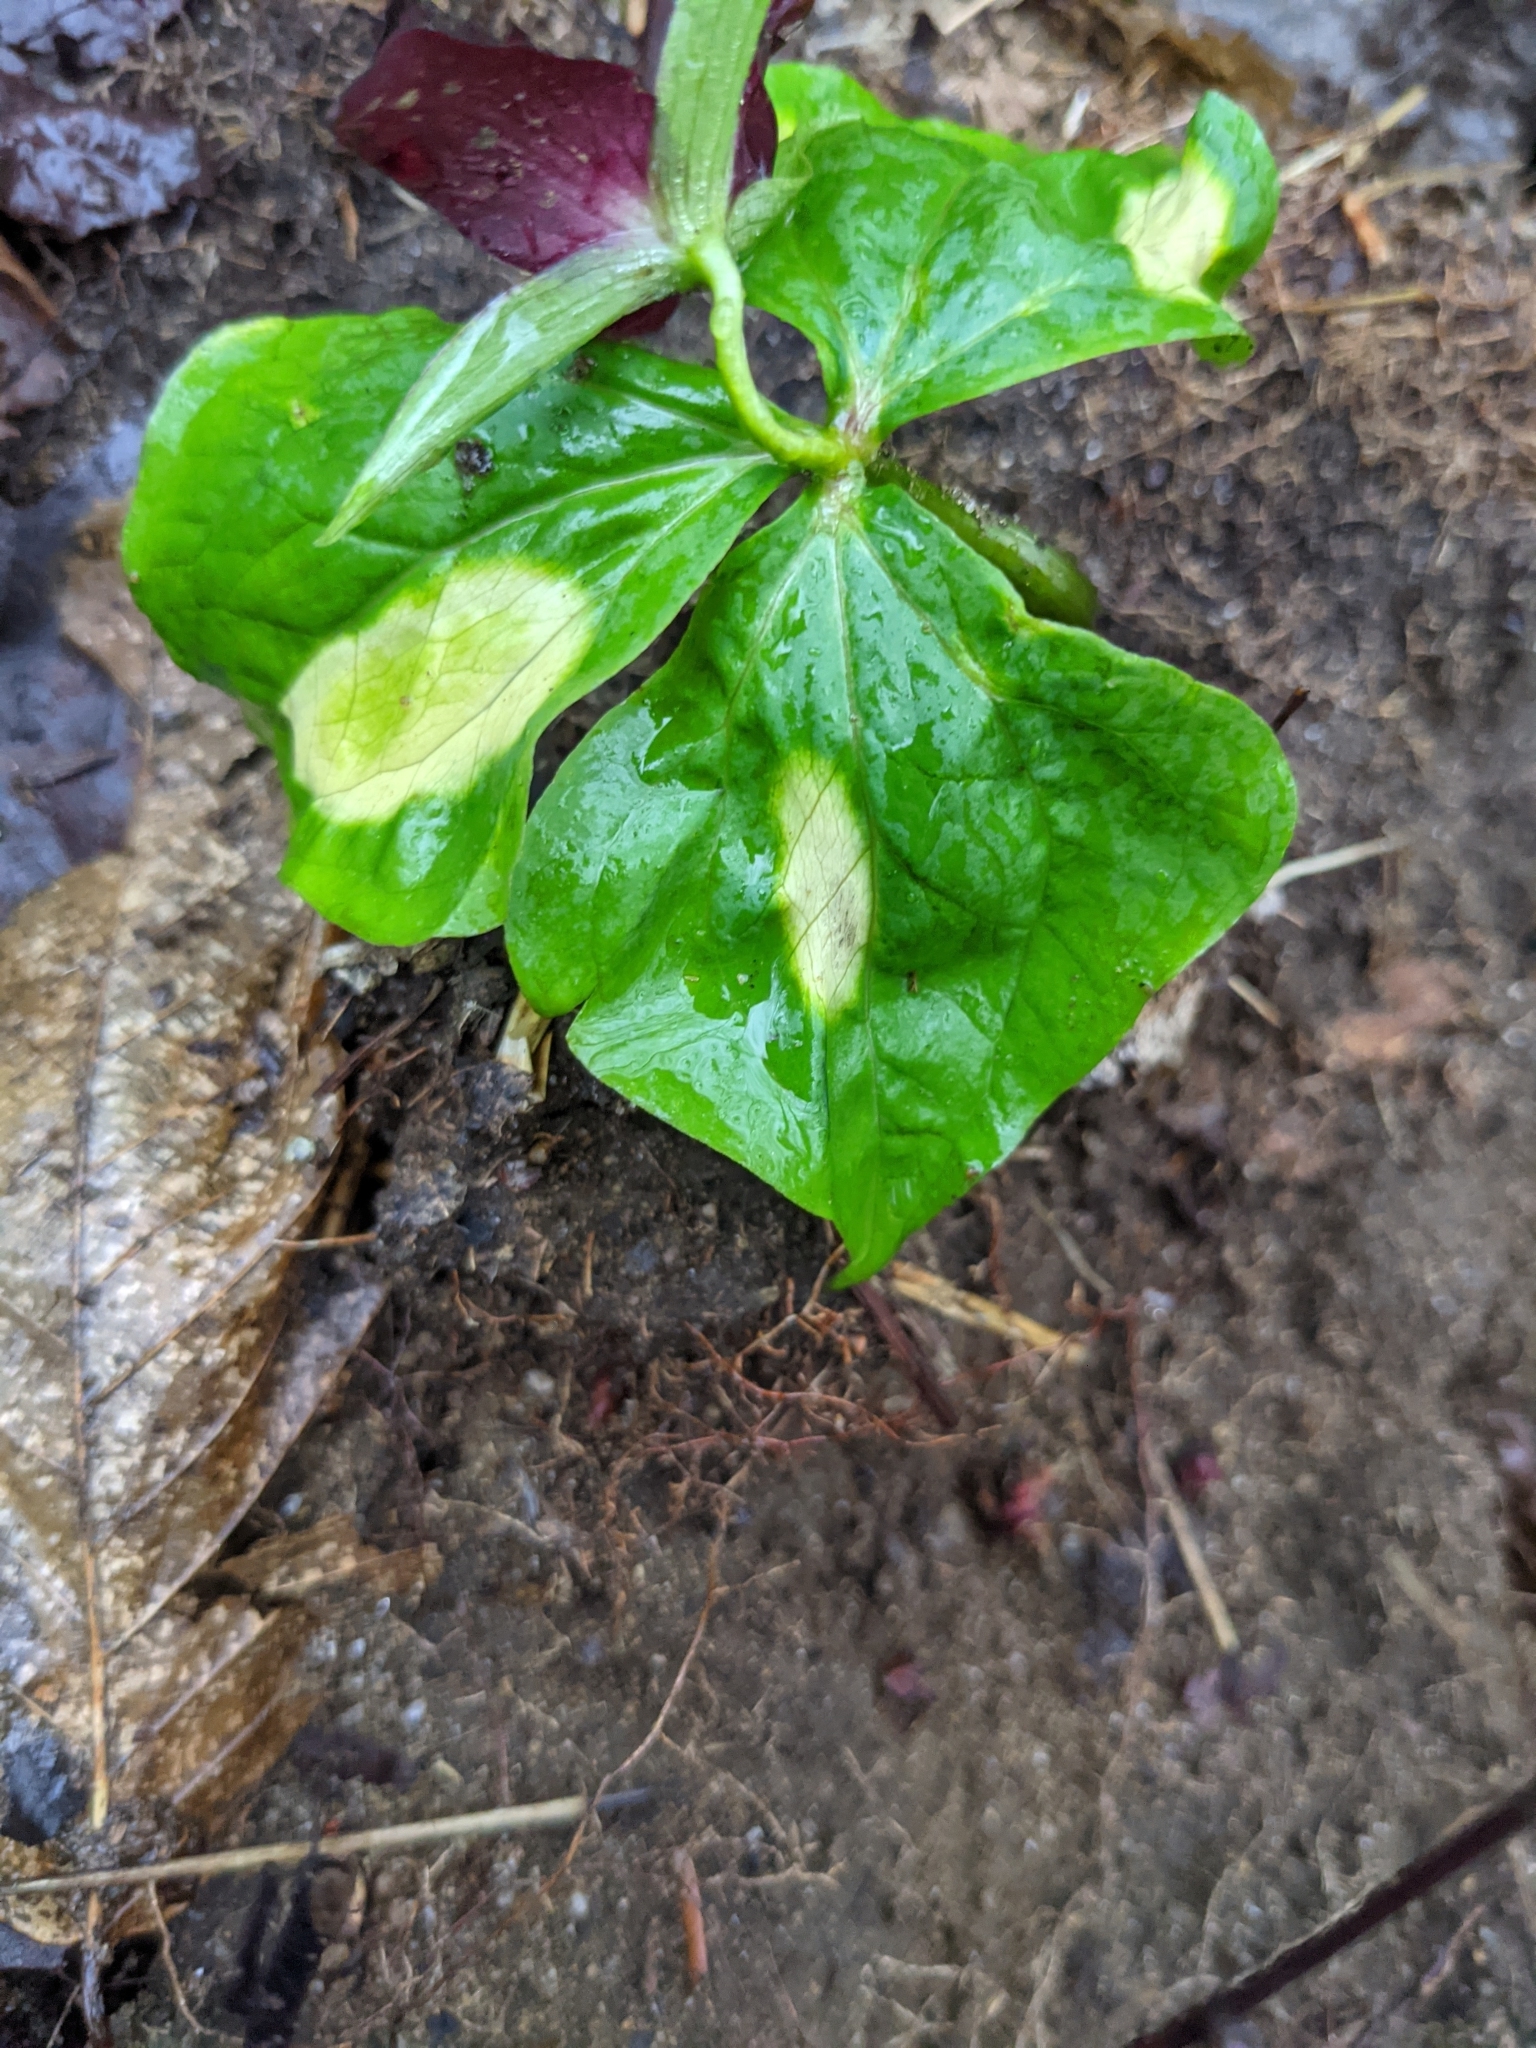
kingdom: Plantae
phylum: Tracheophyta
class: Liliopsida
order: Liliales
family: Melanthiaceae
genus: Trillium
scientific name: Trillium erectum
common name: Purple trillium
